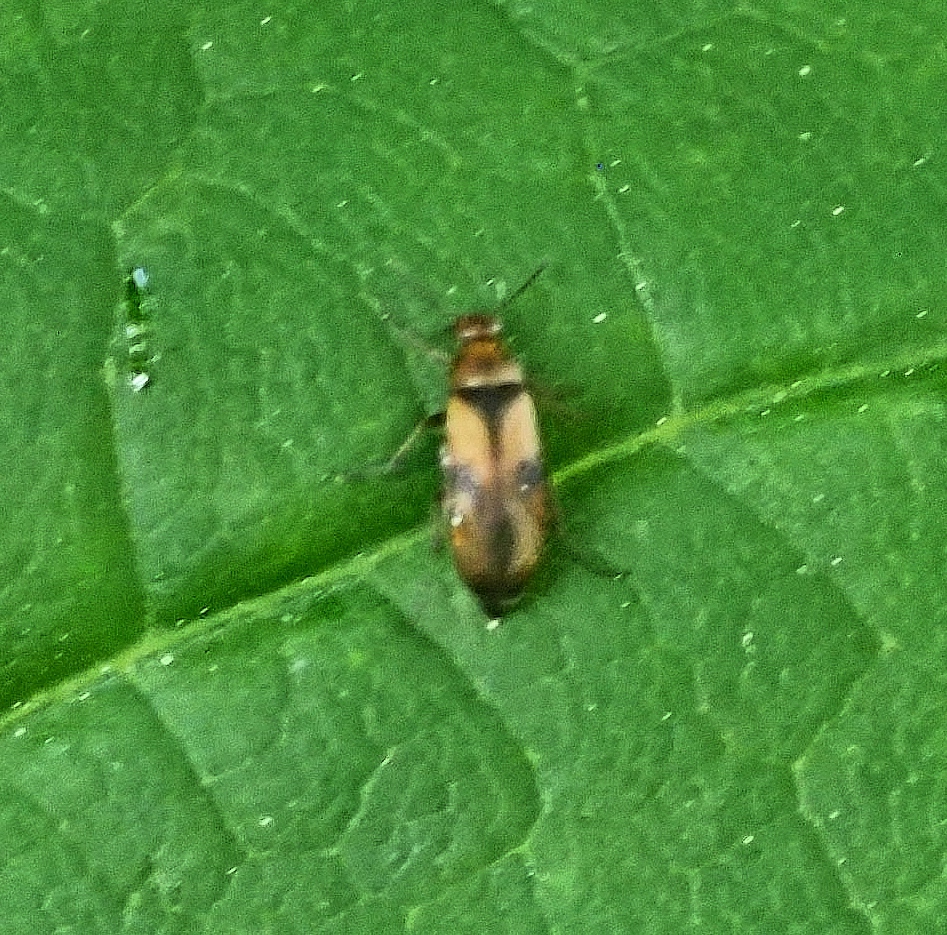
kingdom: Animalia
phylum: Arthropoda
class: Insecta
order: Coleoptera
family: Scraptiidae
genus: Anaspis
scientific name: Anaspis maculata
